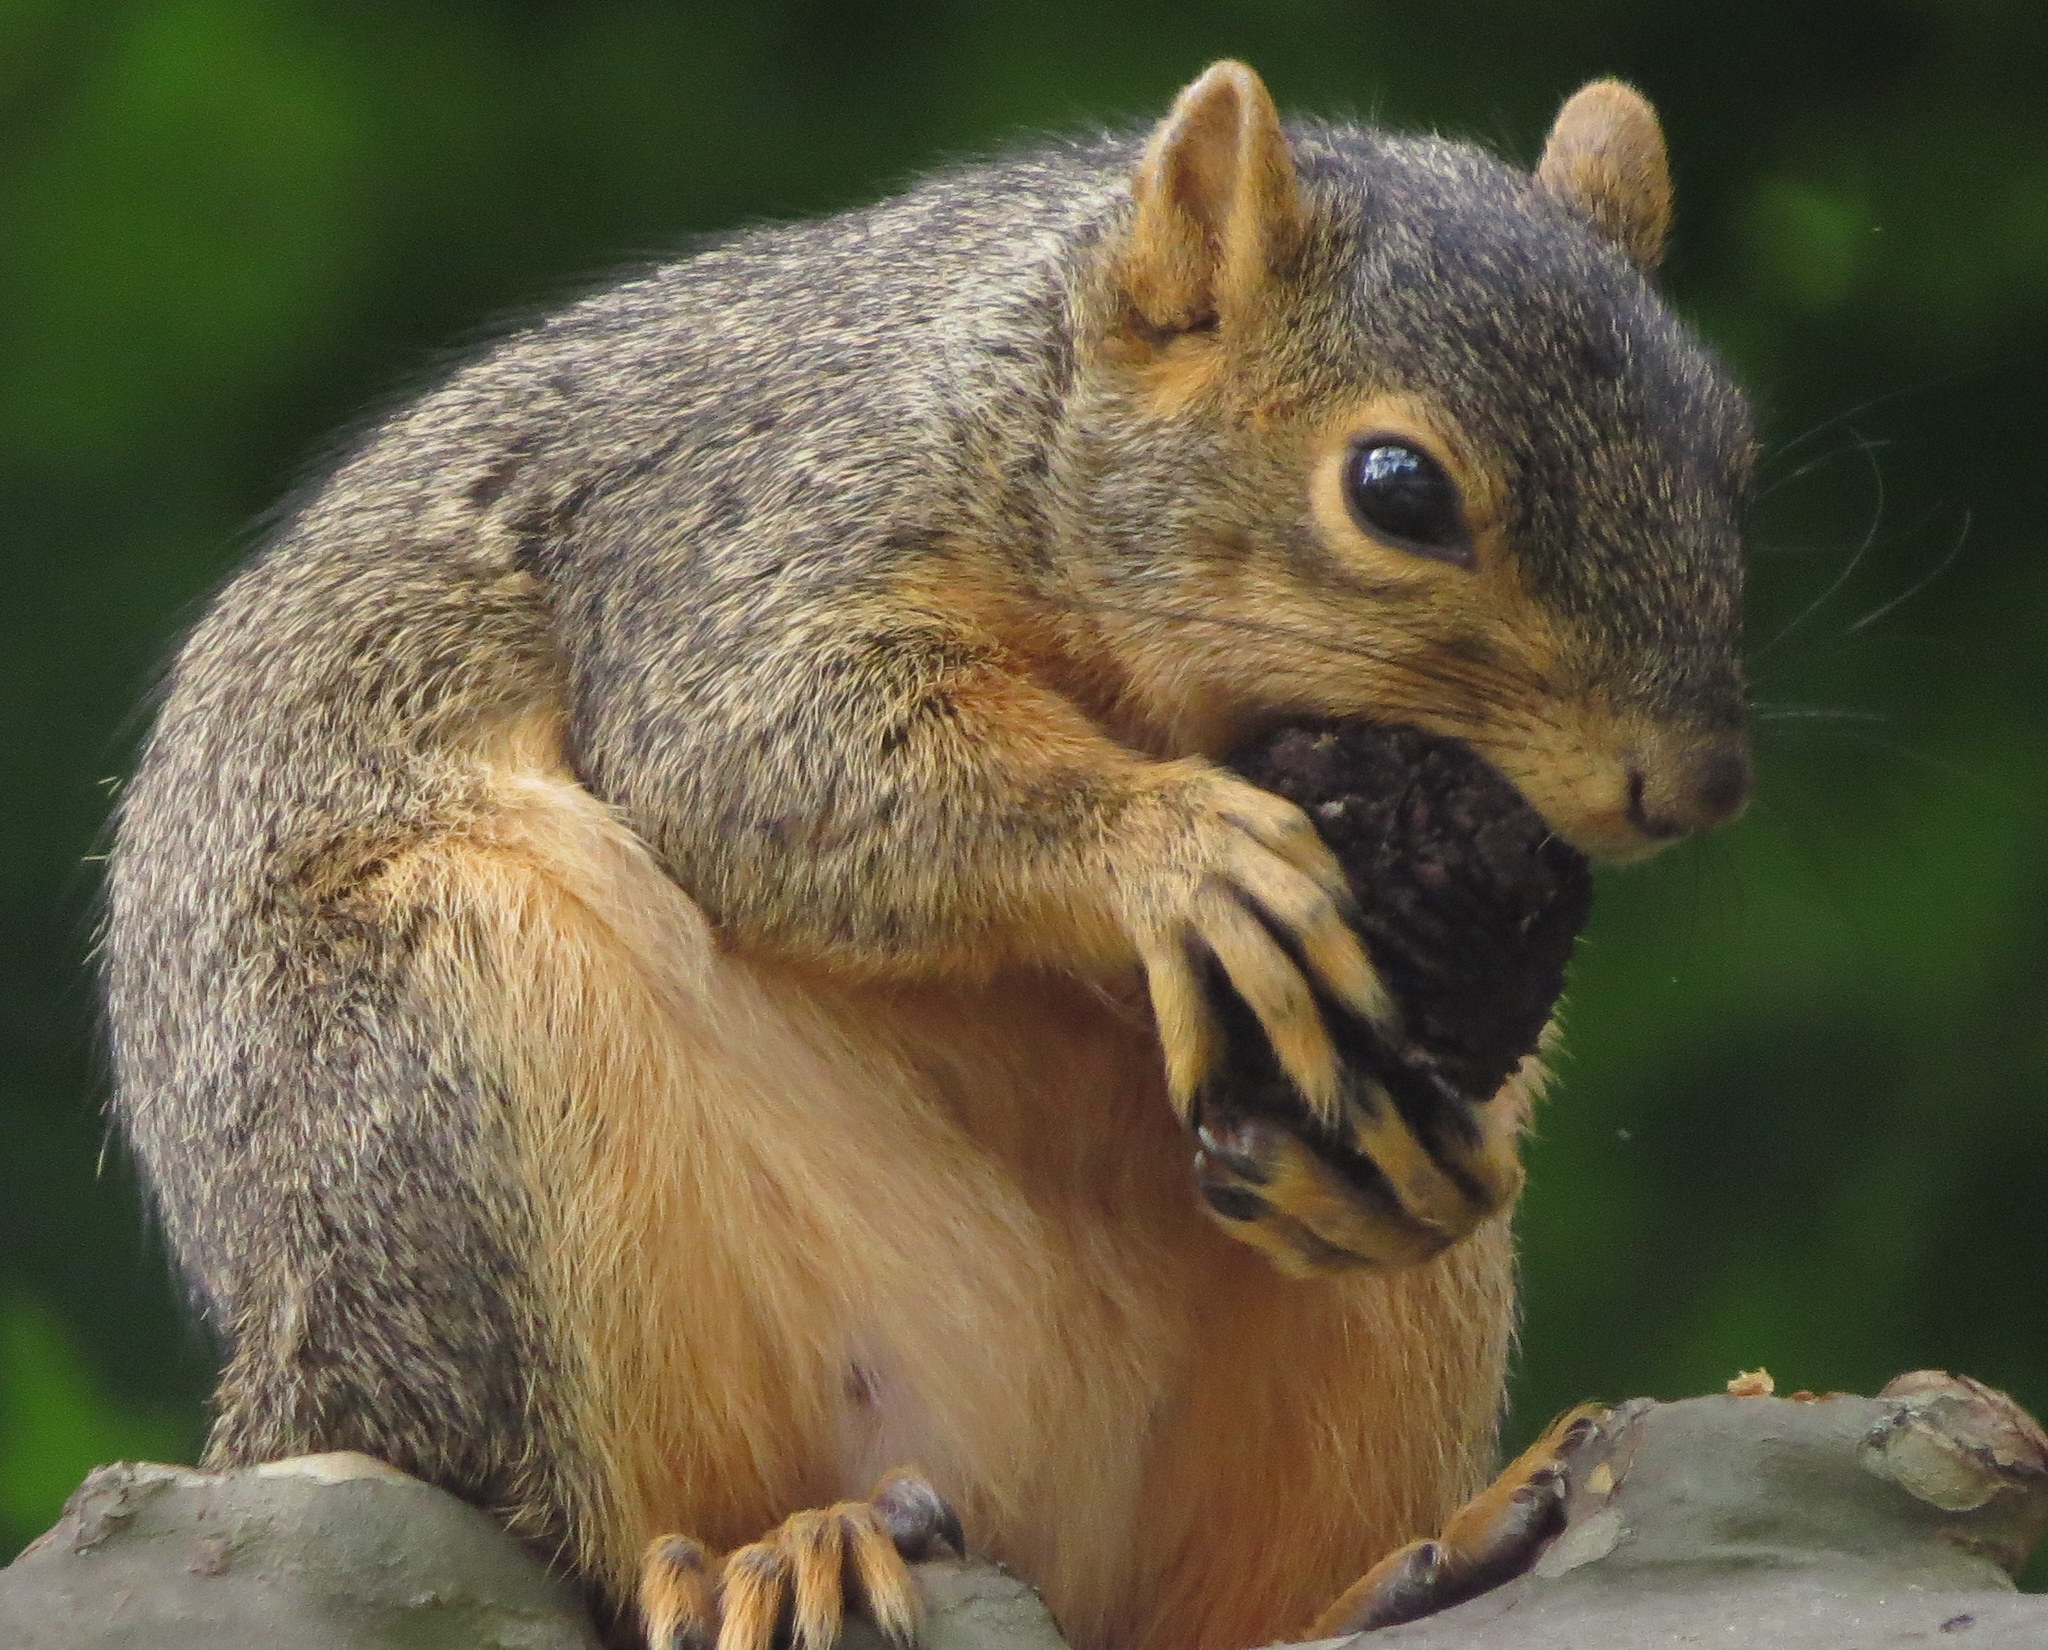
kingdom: Animalia
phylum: Chordata
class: Mammalia
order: Rodentia
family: Sciuridae
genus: Sciurus
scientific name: Sciurus niger
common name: Fox squirrel
